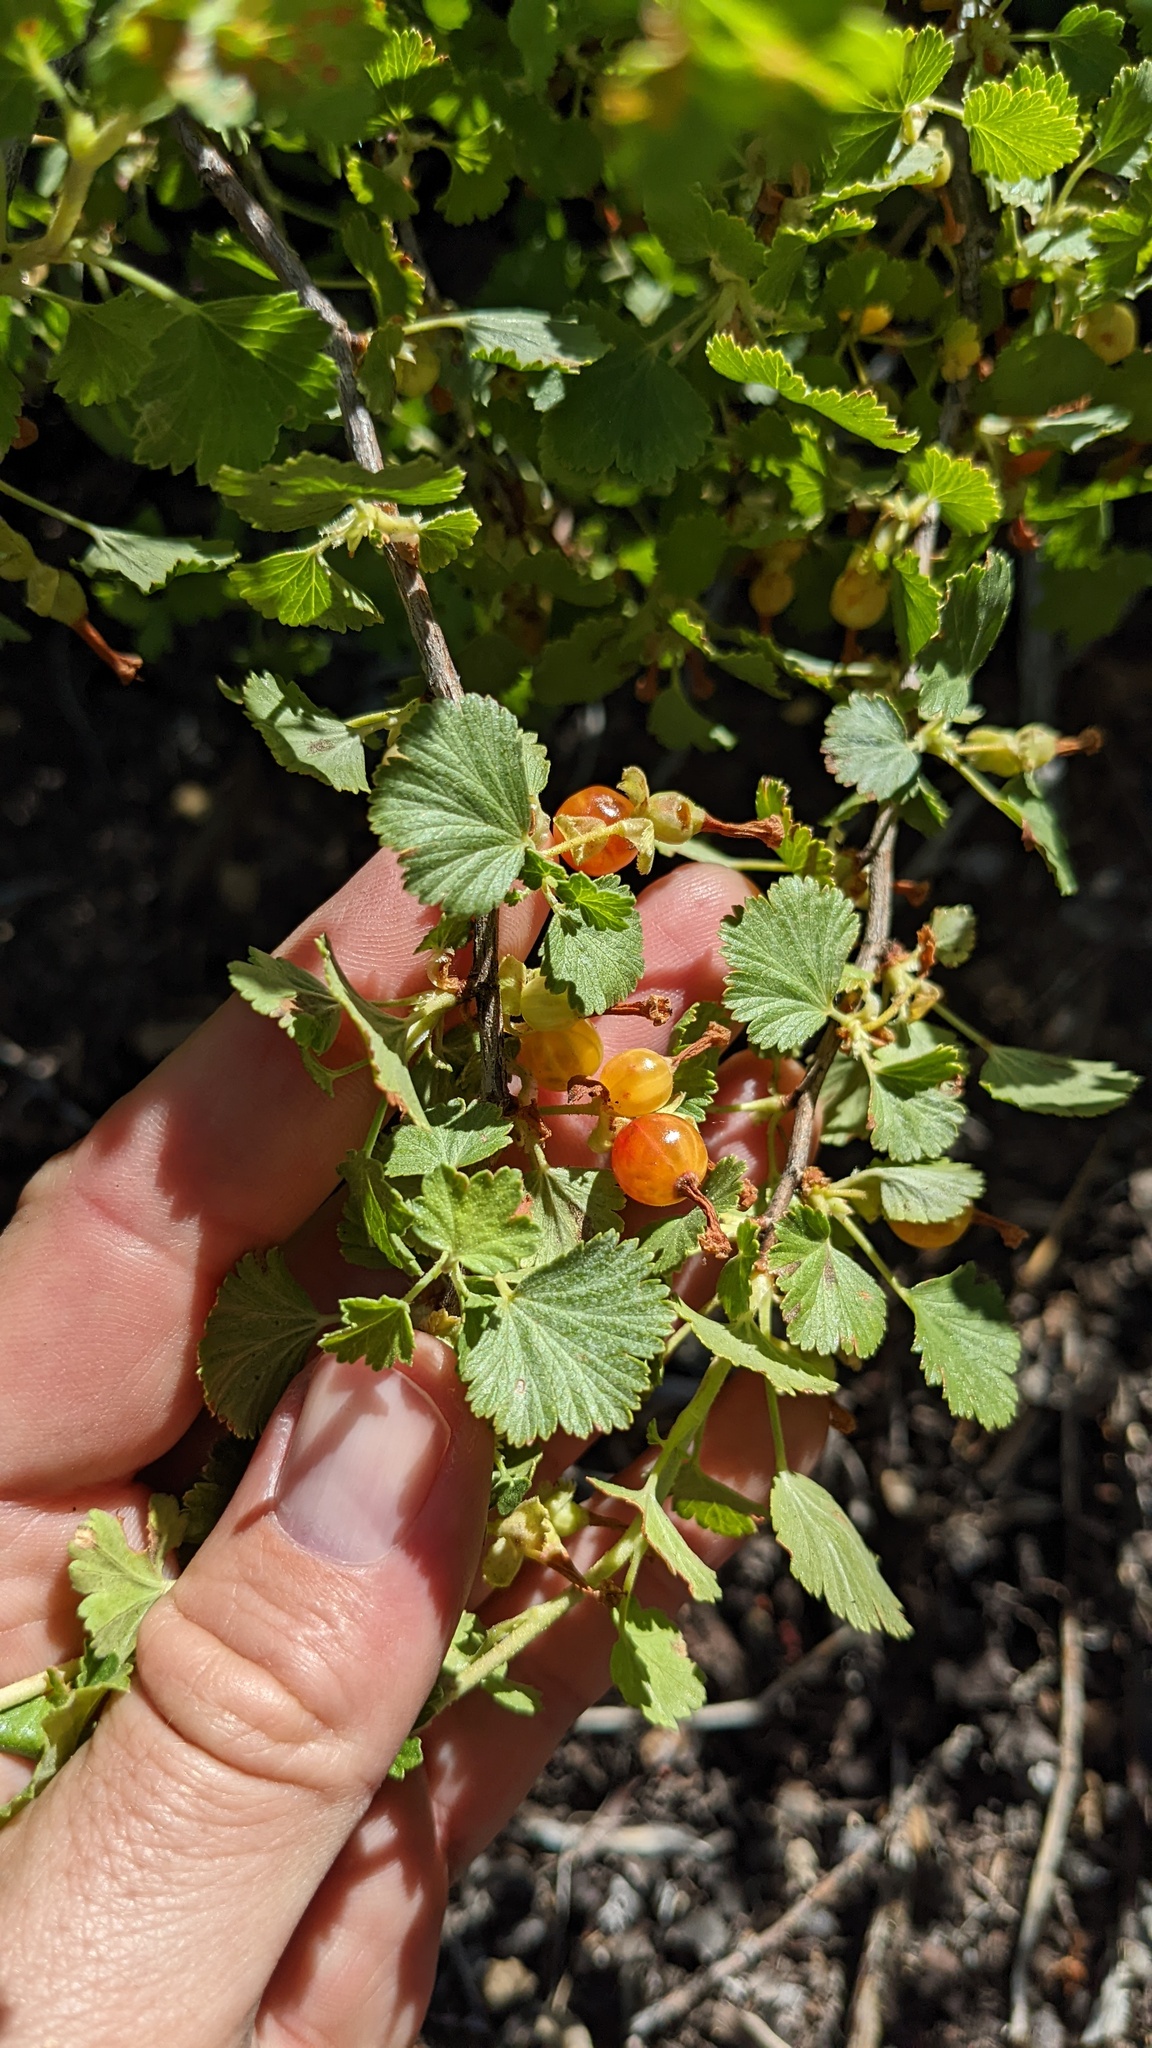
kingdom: Plantae
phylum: Tracheophyta
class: Magnoliopsida
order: Saxifragales
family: Grossulariaceae
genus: Ribes
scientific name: Ribes cereum
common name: Wax currant
